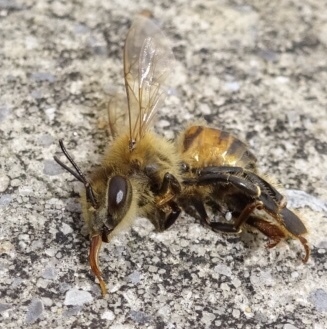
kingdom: Animalia
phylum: Arthropoda
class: Insecta
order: Hymenoptera
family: Apidae
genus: Apis
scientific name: Apis mellifera
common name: Honey bee
